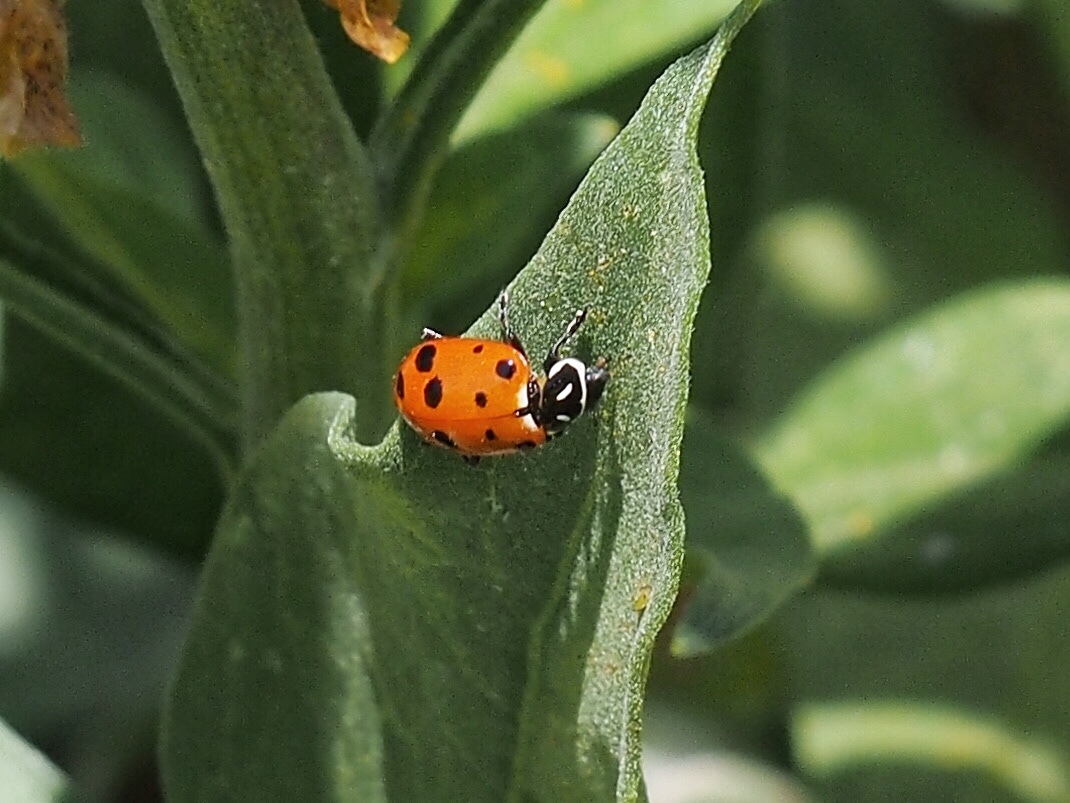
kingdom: Animalia
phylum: Arthropoda
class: Insecta
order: Coleoptera
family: Coccinellidae
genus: Hippodamia
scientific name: Hippodamia convergens
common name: Convergent lady beetle
